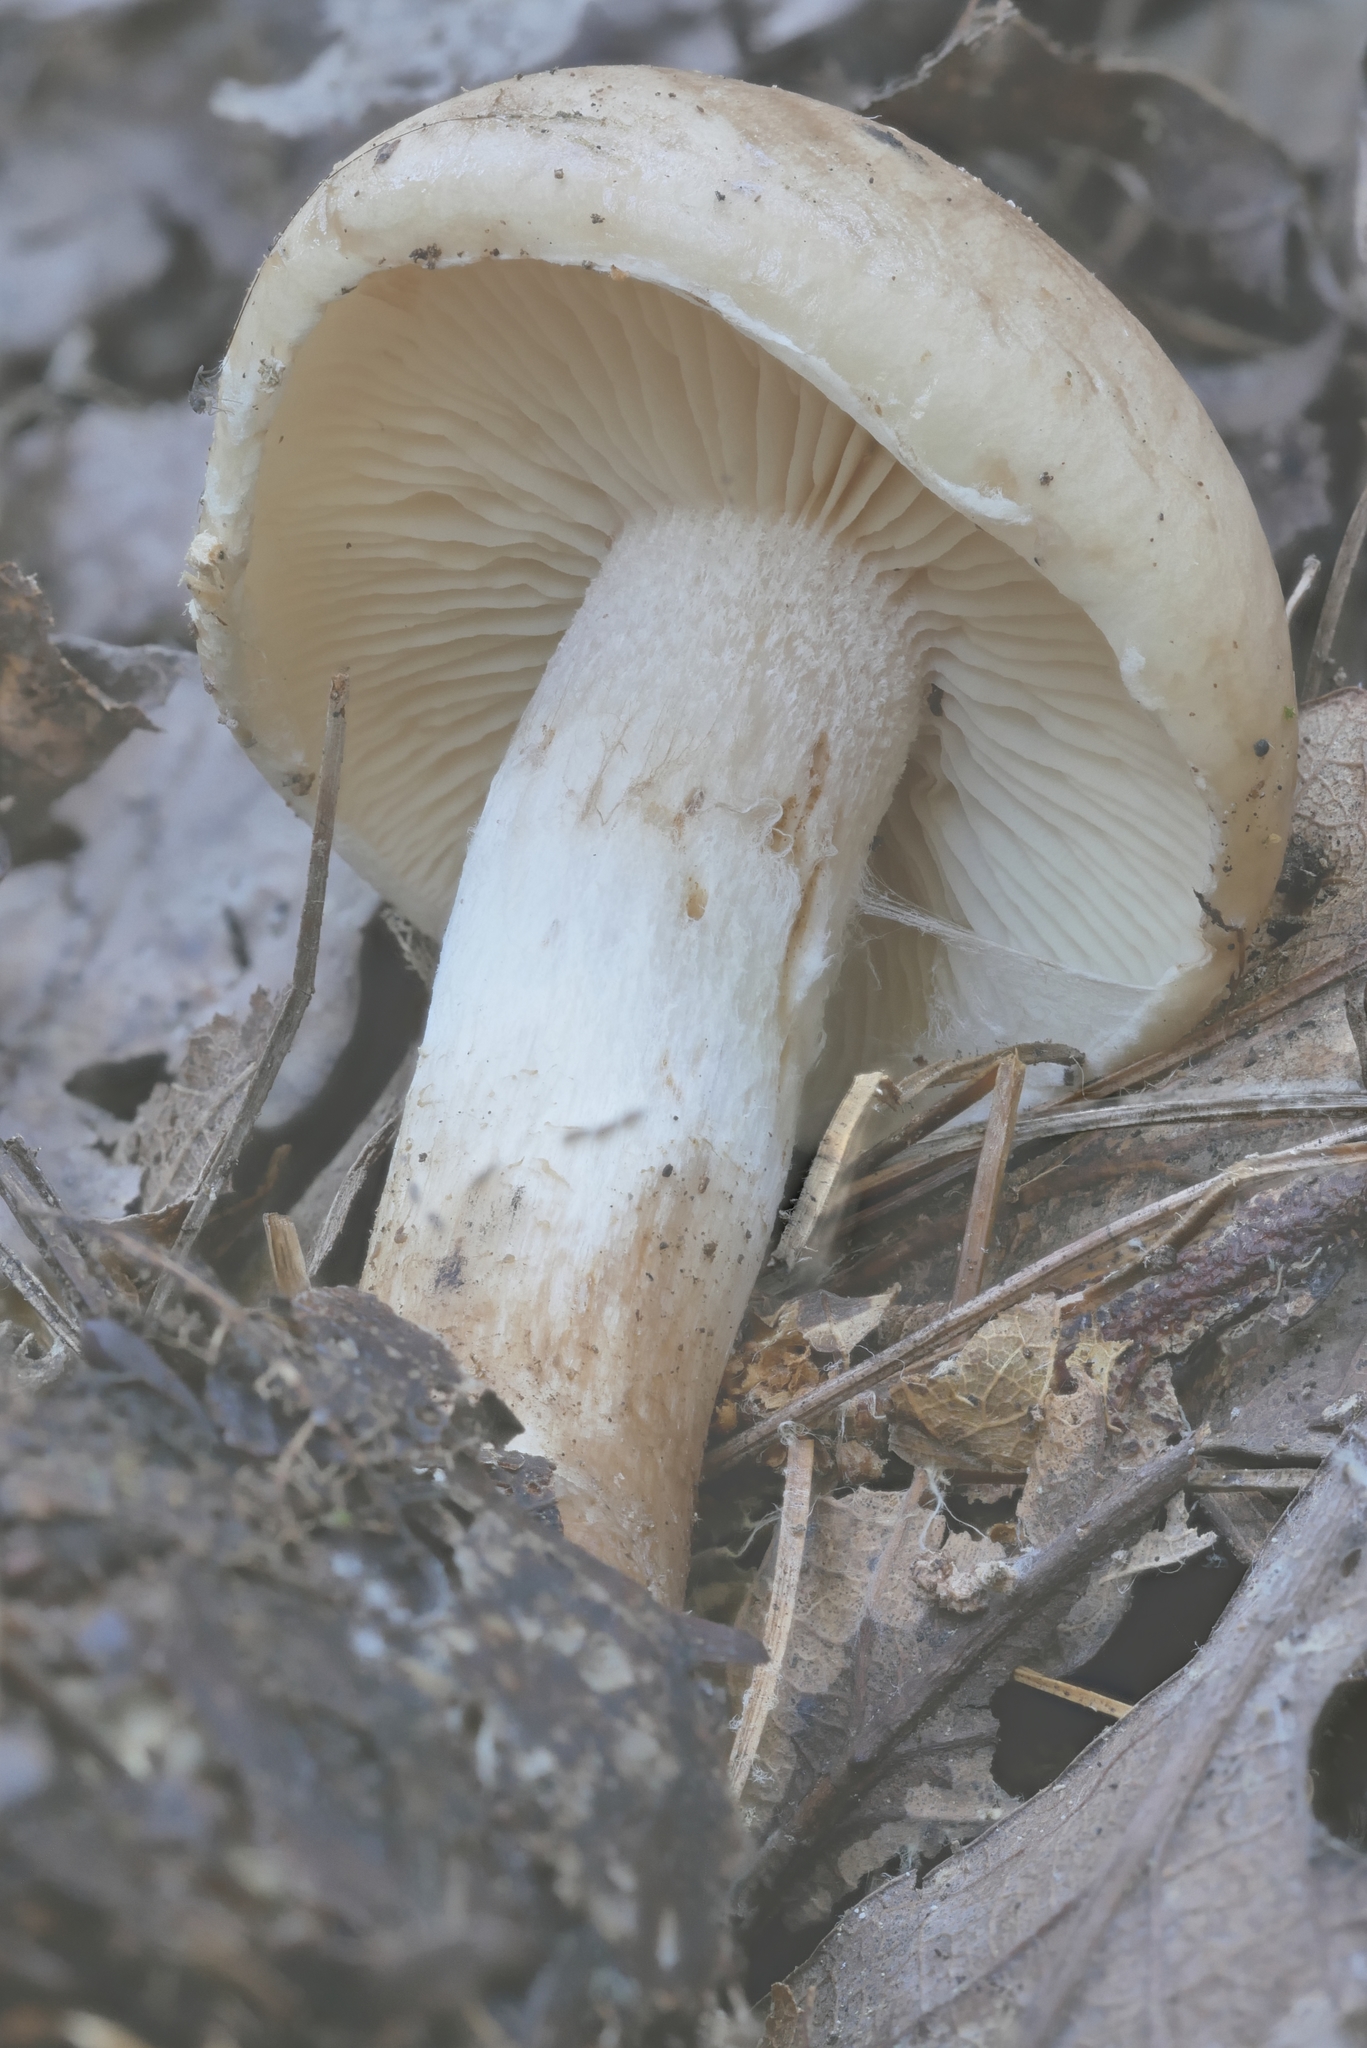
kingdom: Fungi
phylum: Basidiomycota
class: Agaricomycetes
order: Agaricales
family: Strophariaceae
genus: Pholiota
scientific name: Pholiota lenta
